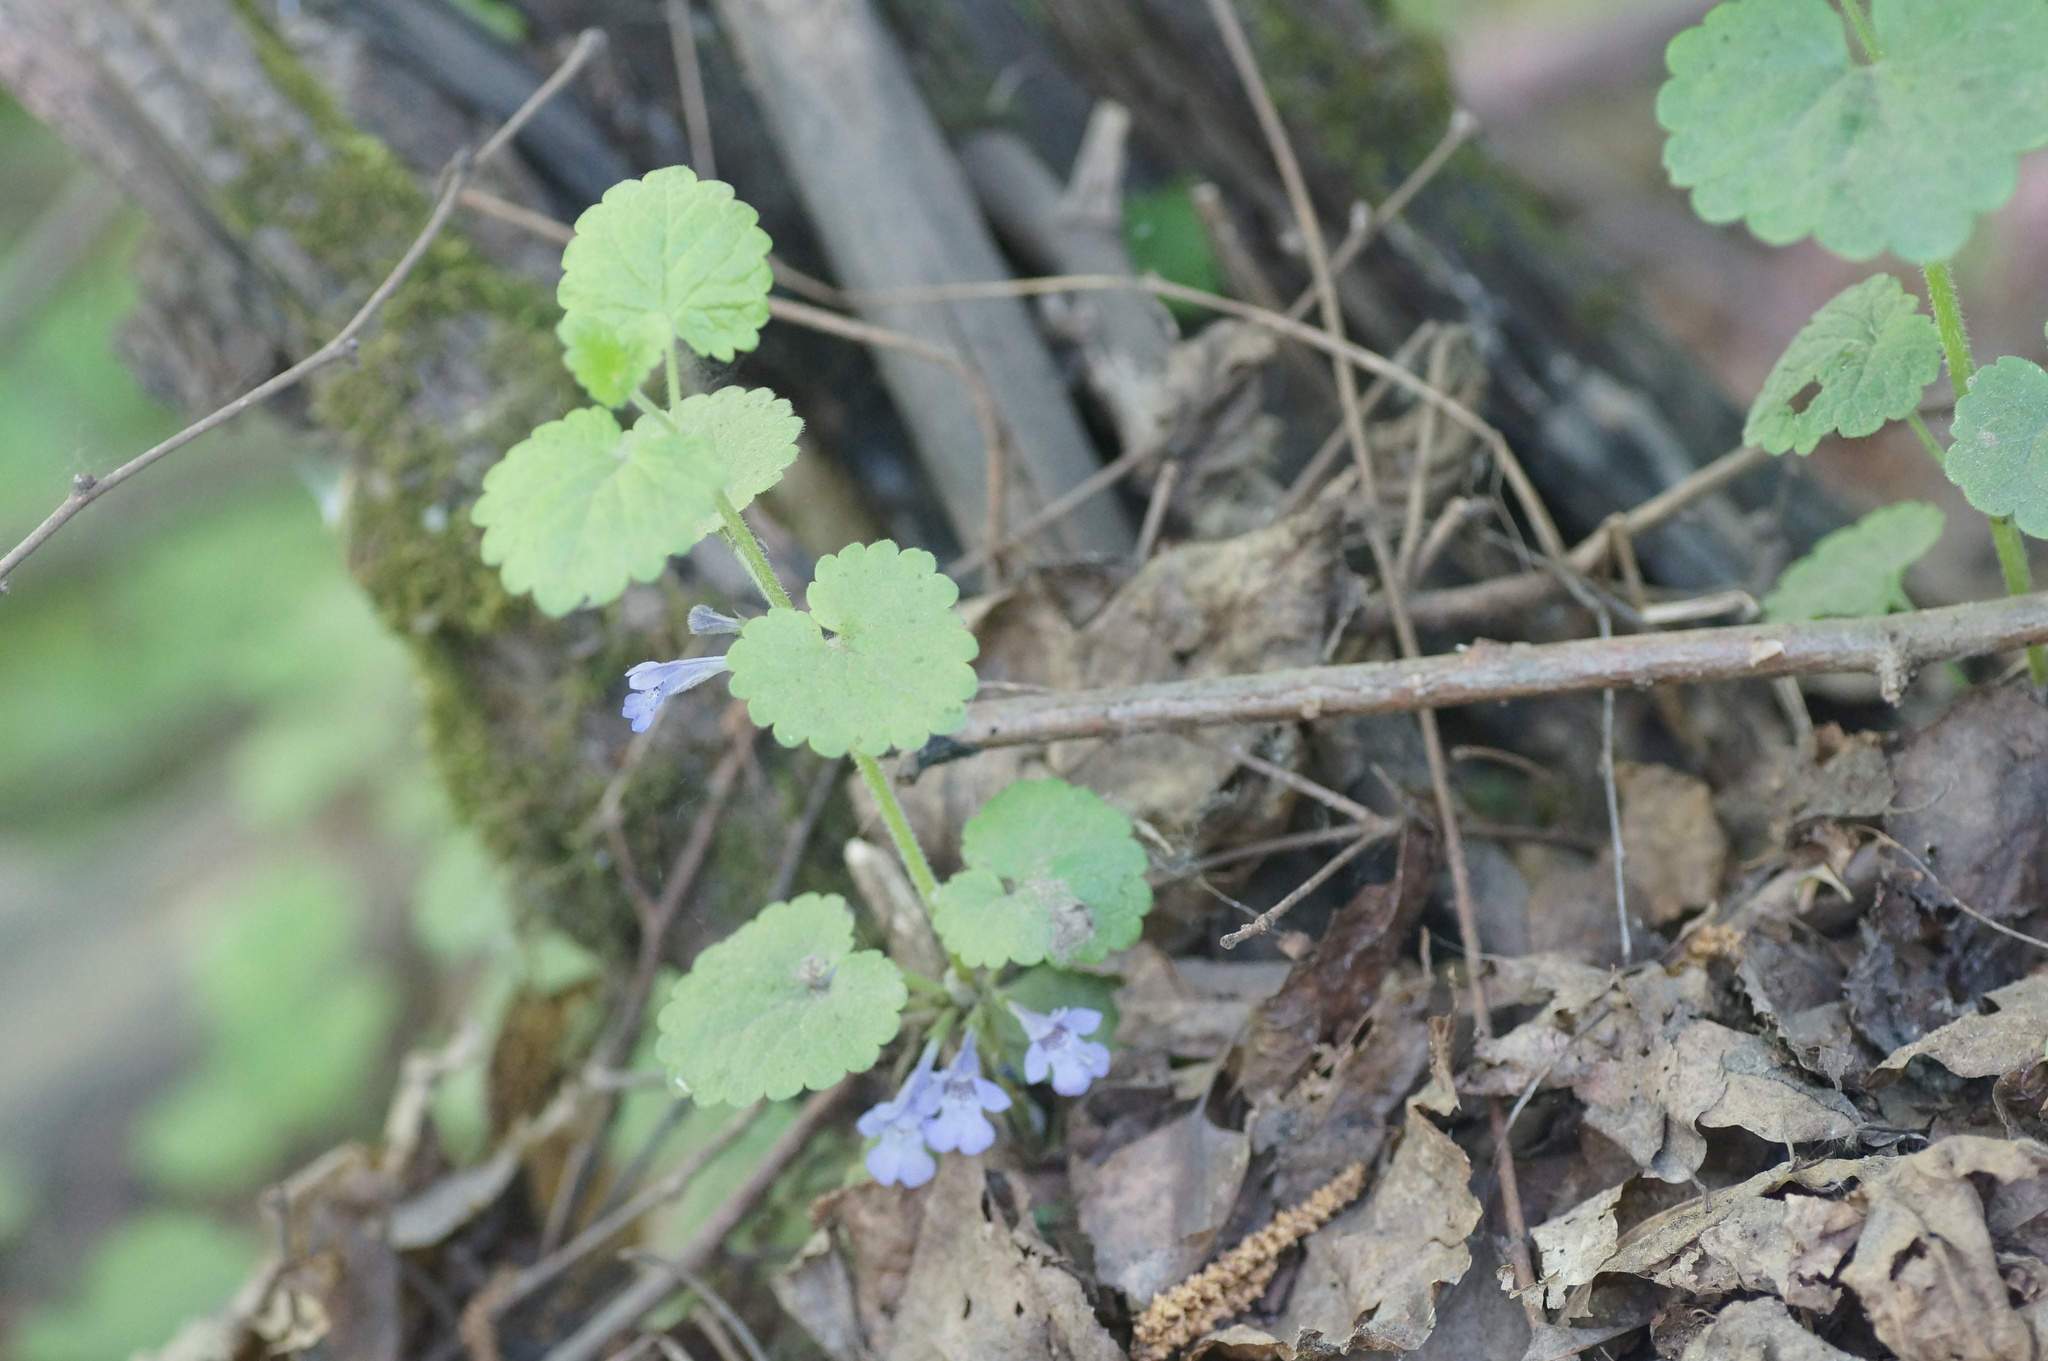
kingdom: Plantae
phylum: Tracheophyta
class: Magnoliopsida
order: Lamiales
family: Lamiaceae
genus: Glechoma
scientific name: Glechoma hederacea
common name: Ground ivy
